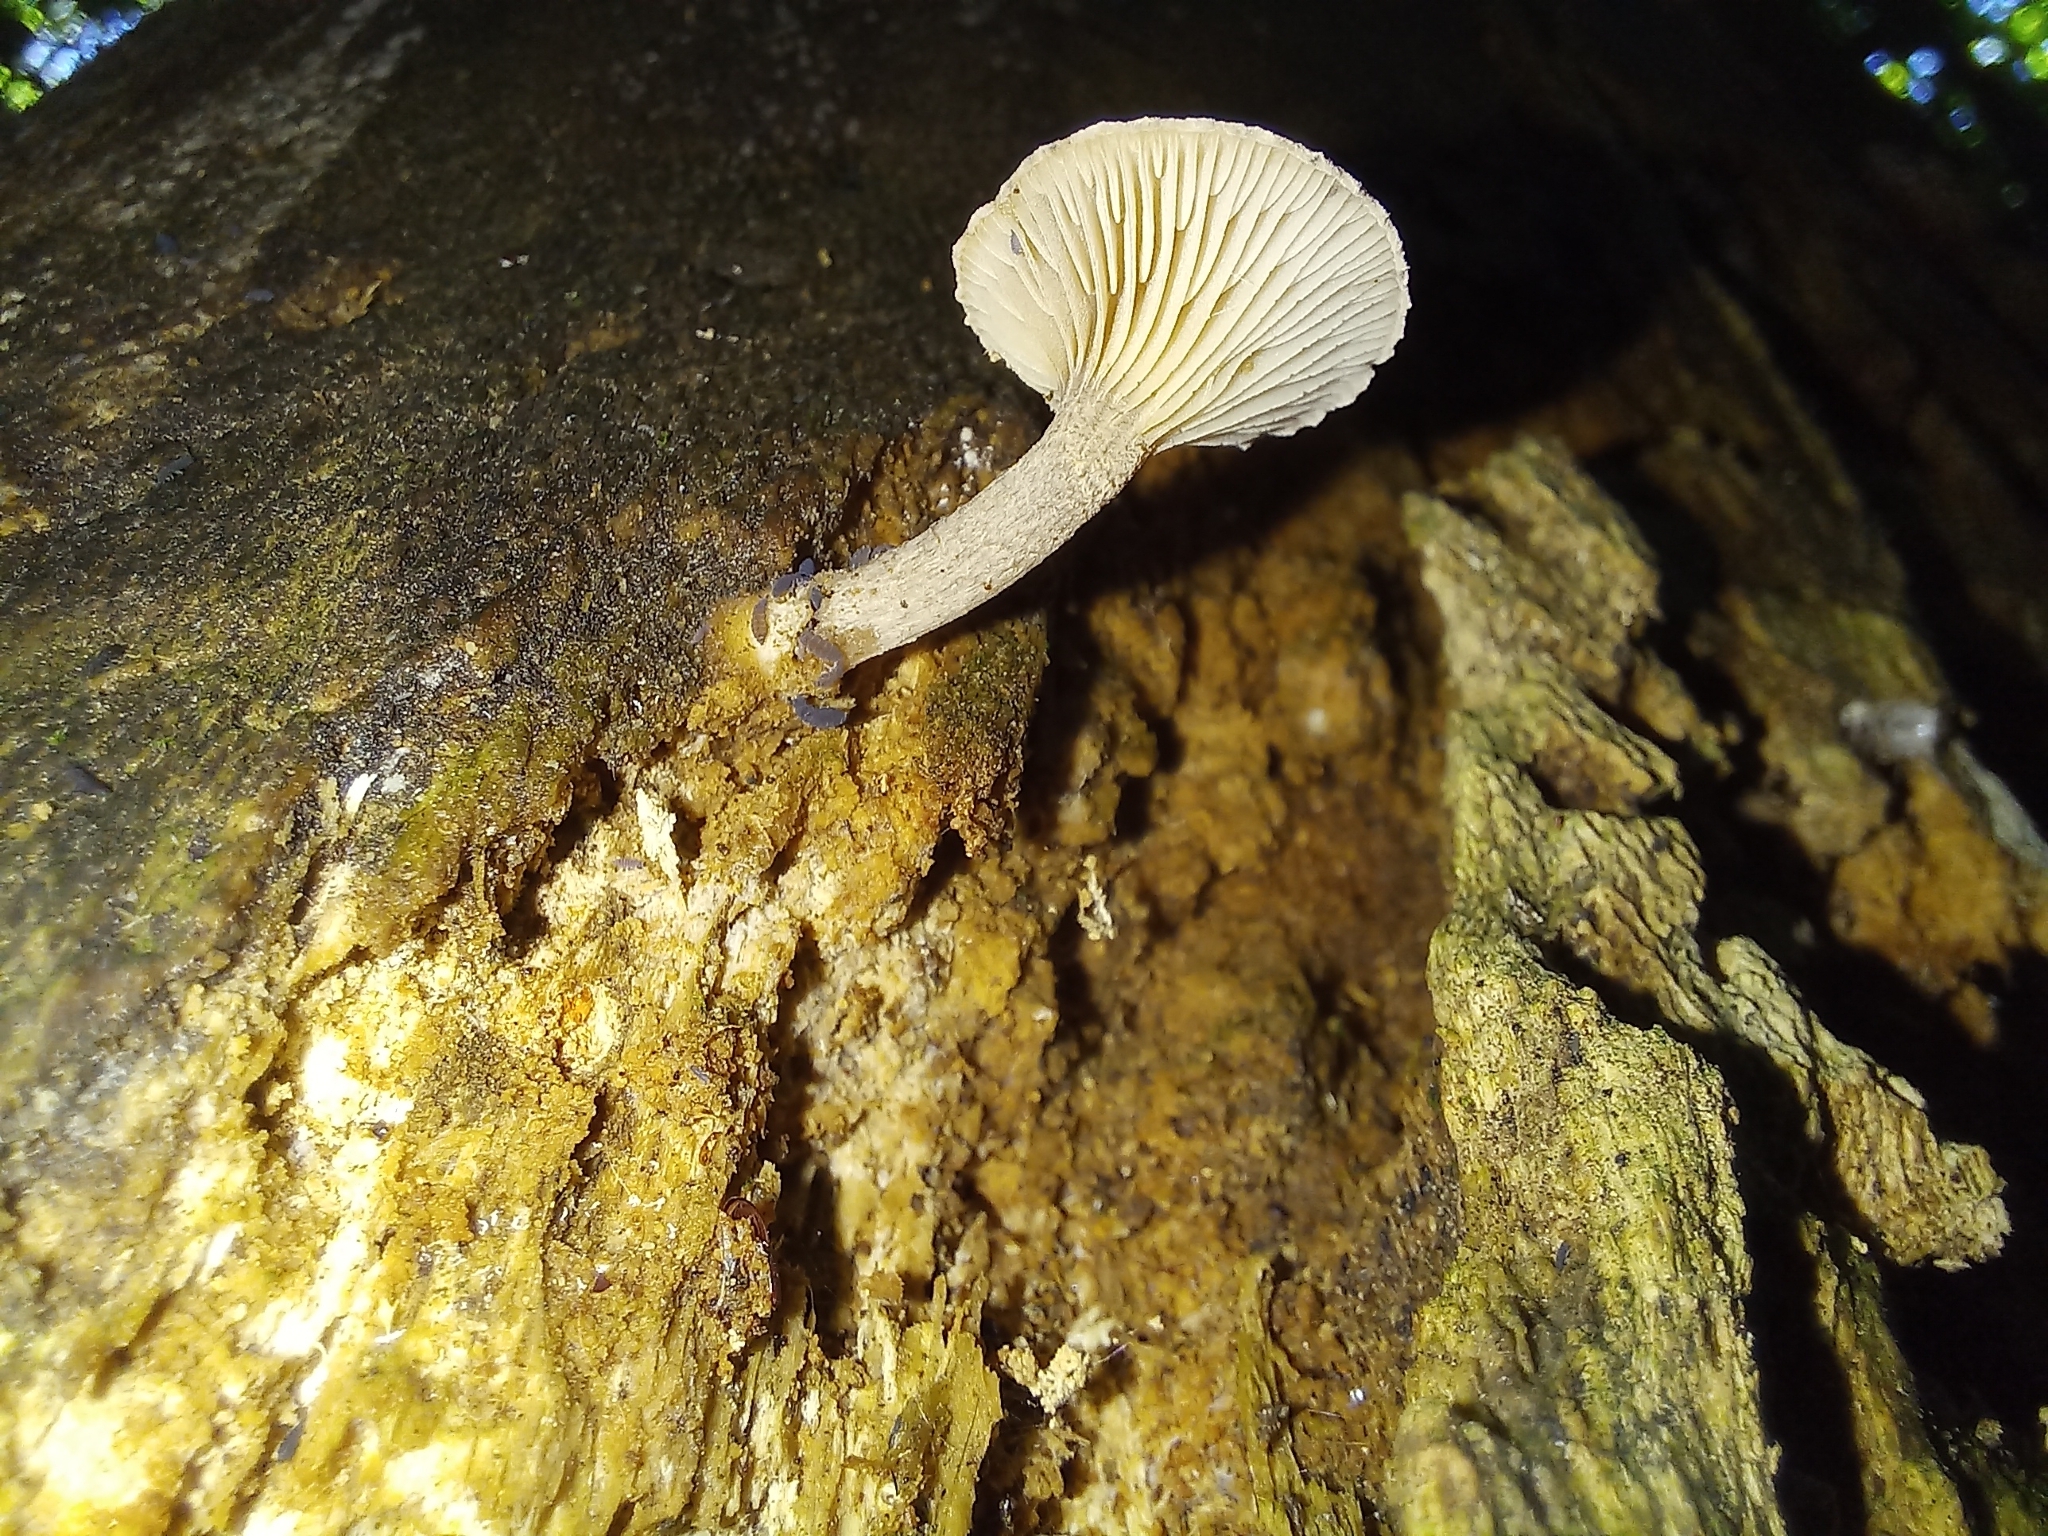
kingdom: Fungi
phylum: Basidiomycota
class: Agaricomycetes
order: Agaricales
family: Pleurotaceae
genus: Hohenbuehelia
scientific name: Hohenbuehelia
